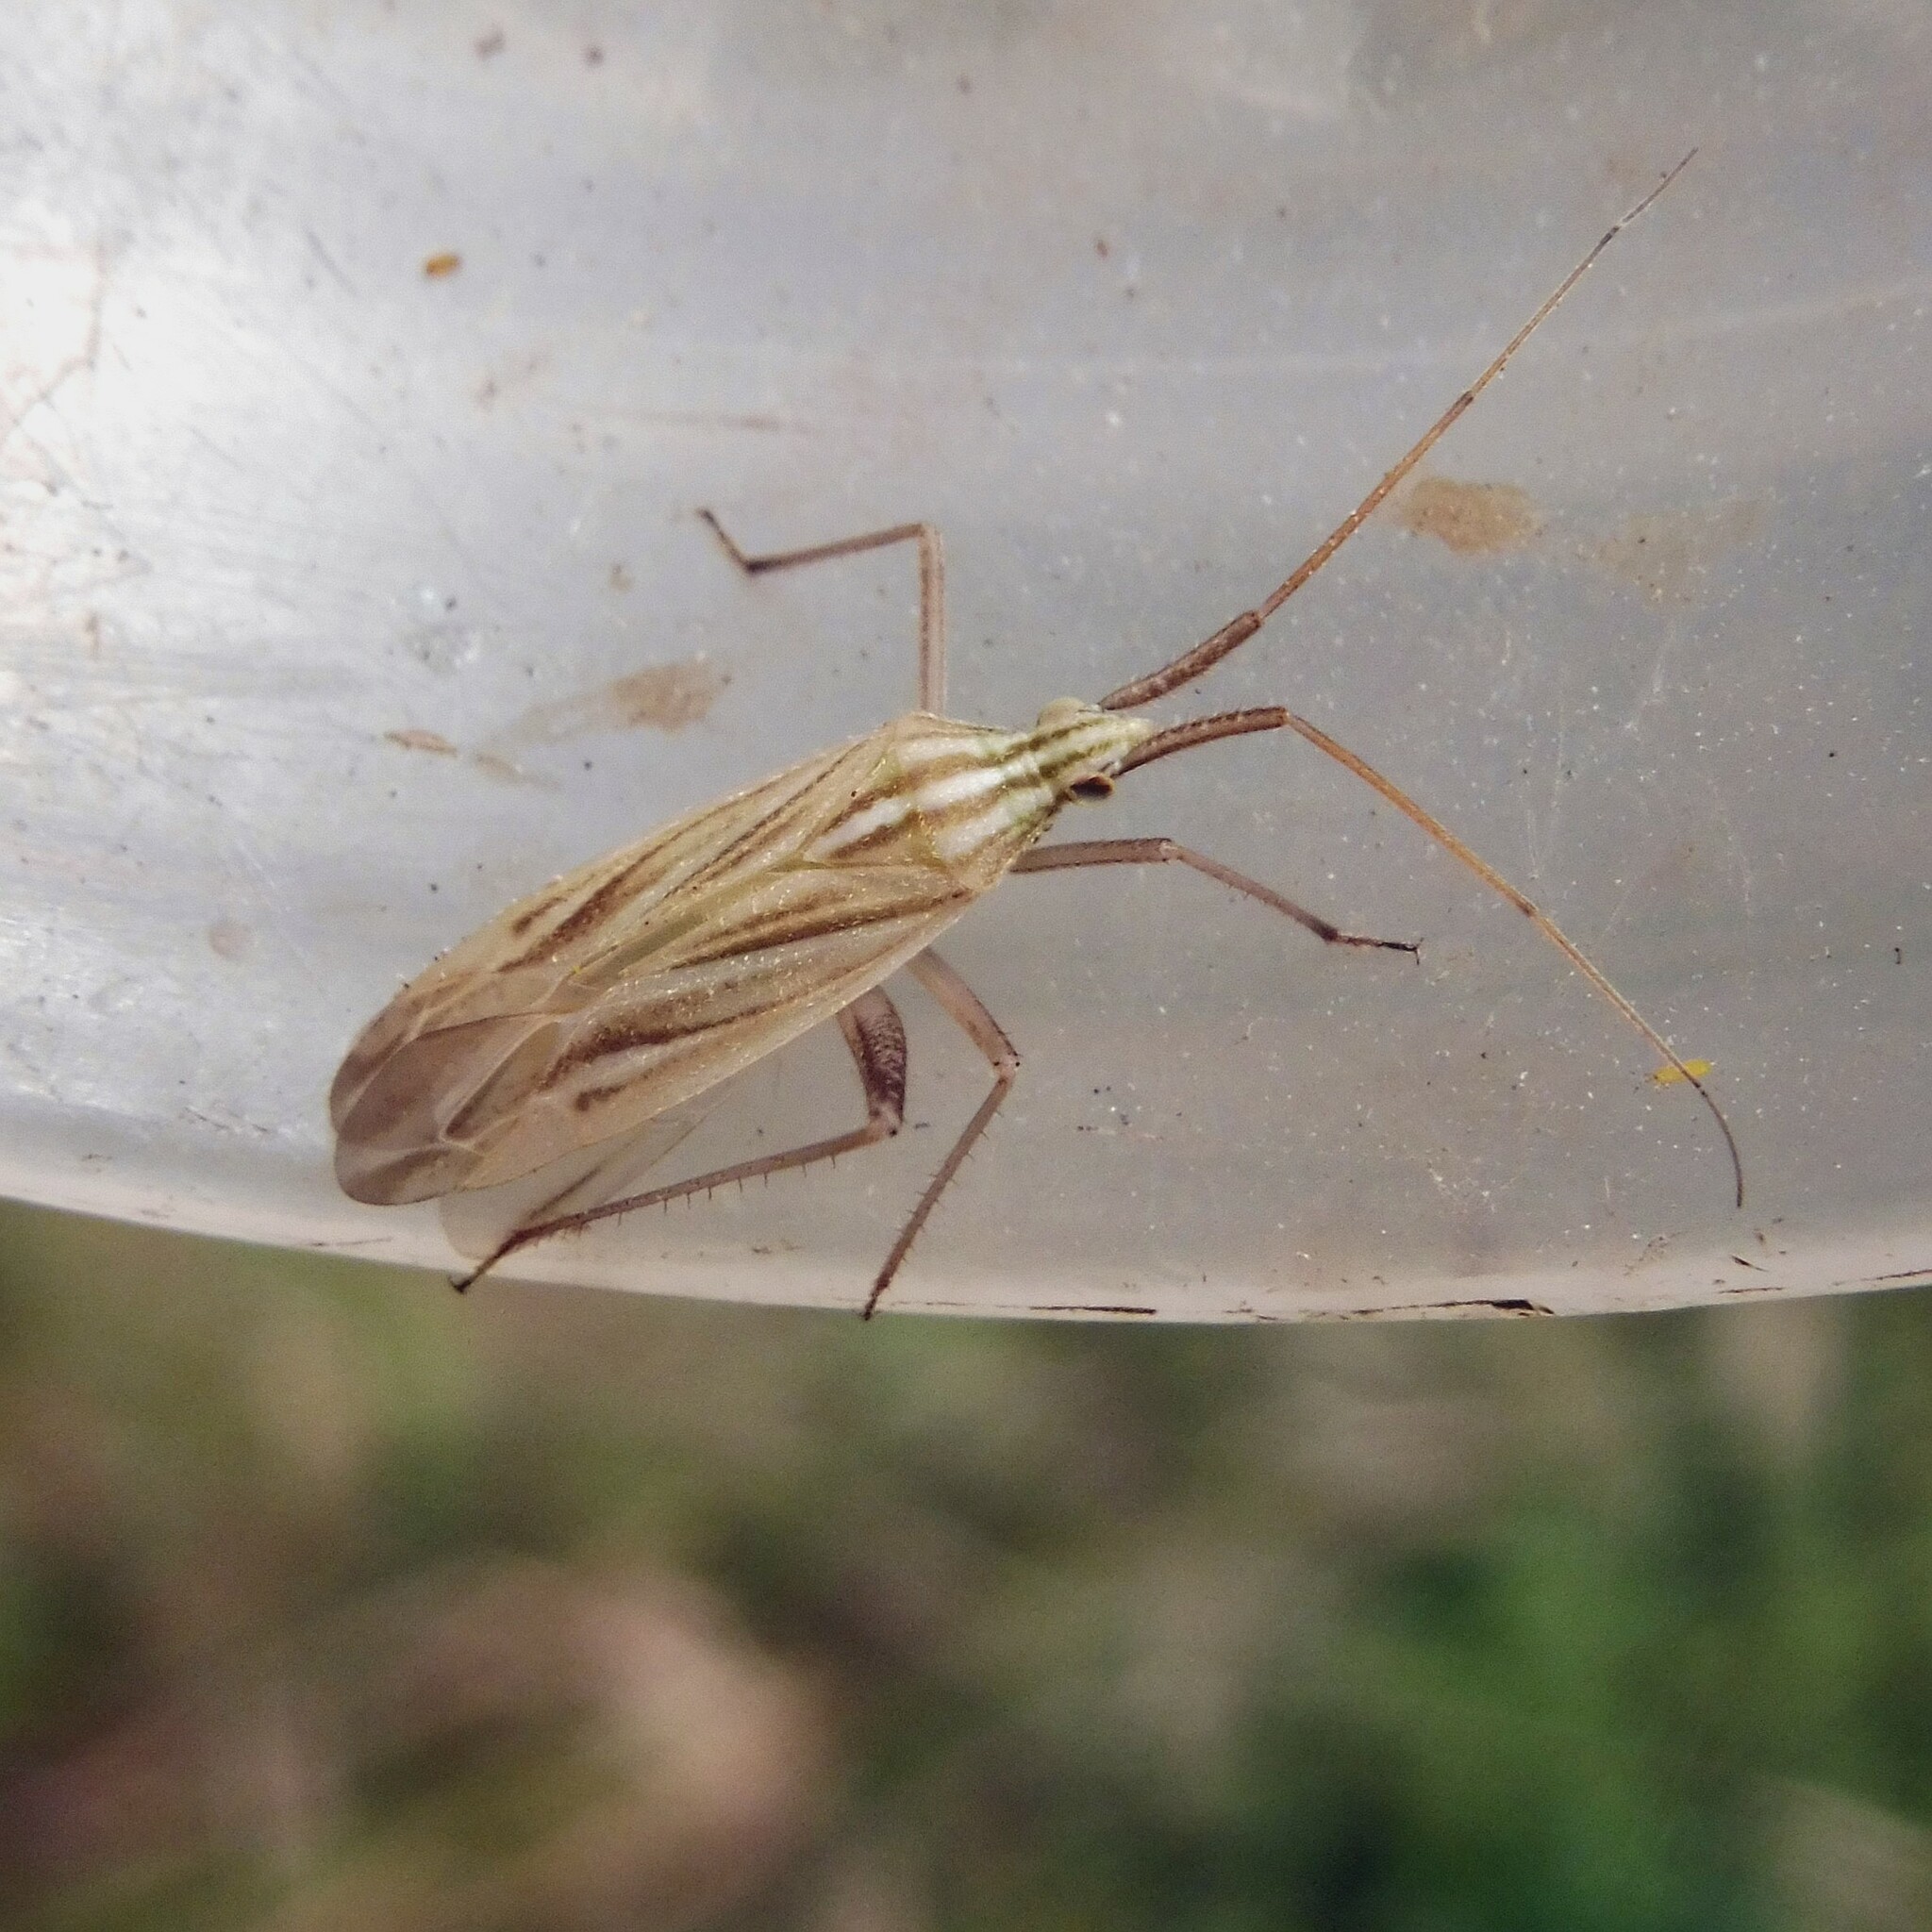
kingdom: Animalia
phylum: Arthropoda
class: Insecta
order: Hemiptera
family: Miridae
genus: Miridius
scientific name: Miridius quadrivirgatus
